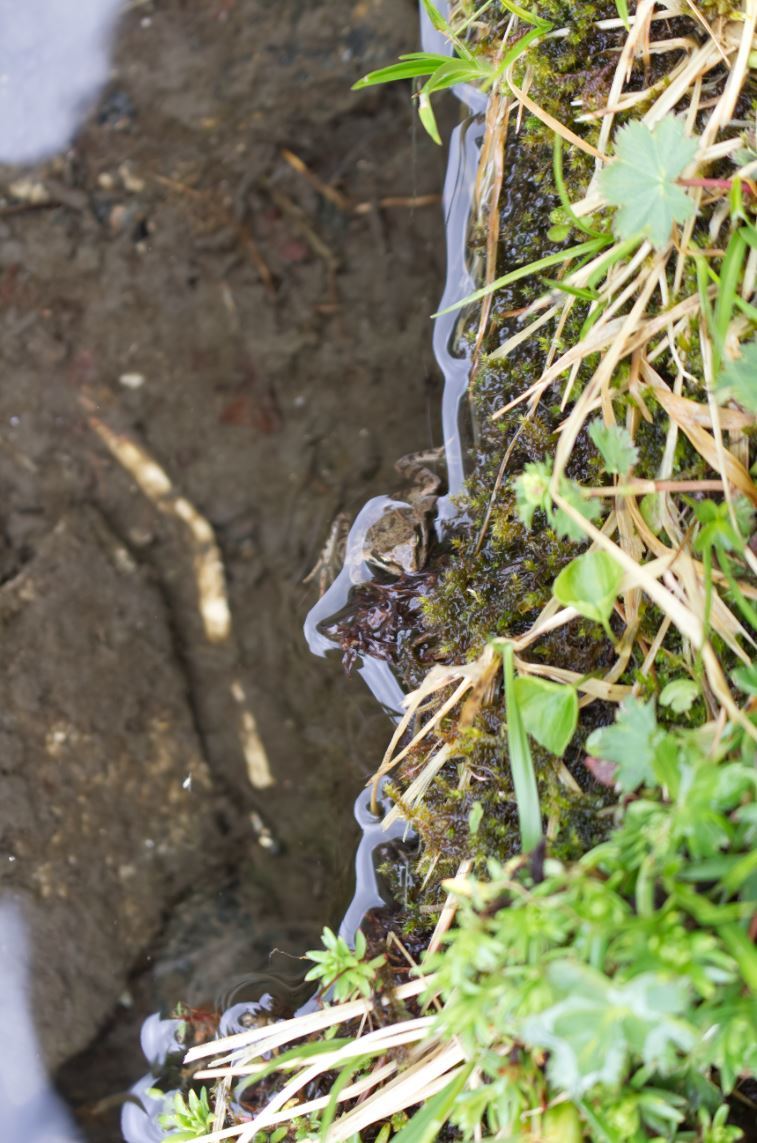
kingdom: Animalia
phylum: Chordata
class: Amphibia
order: Anura
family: Ranidae
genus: Rana
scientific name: Rana temporaria
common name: Common frog
